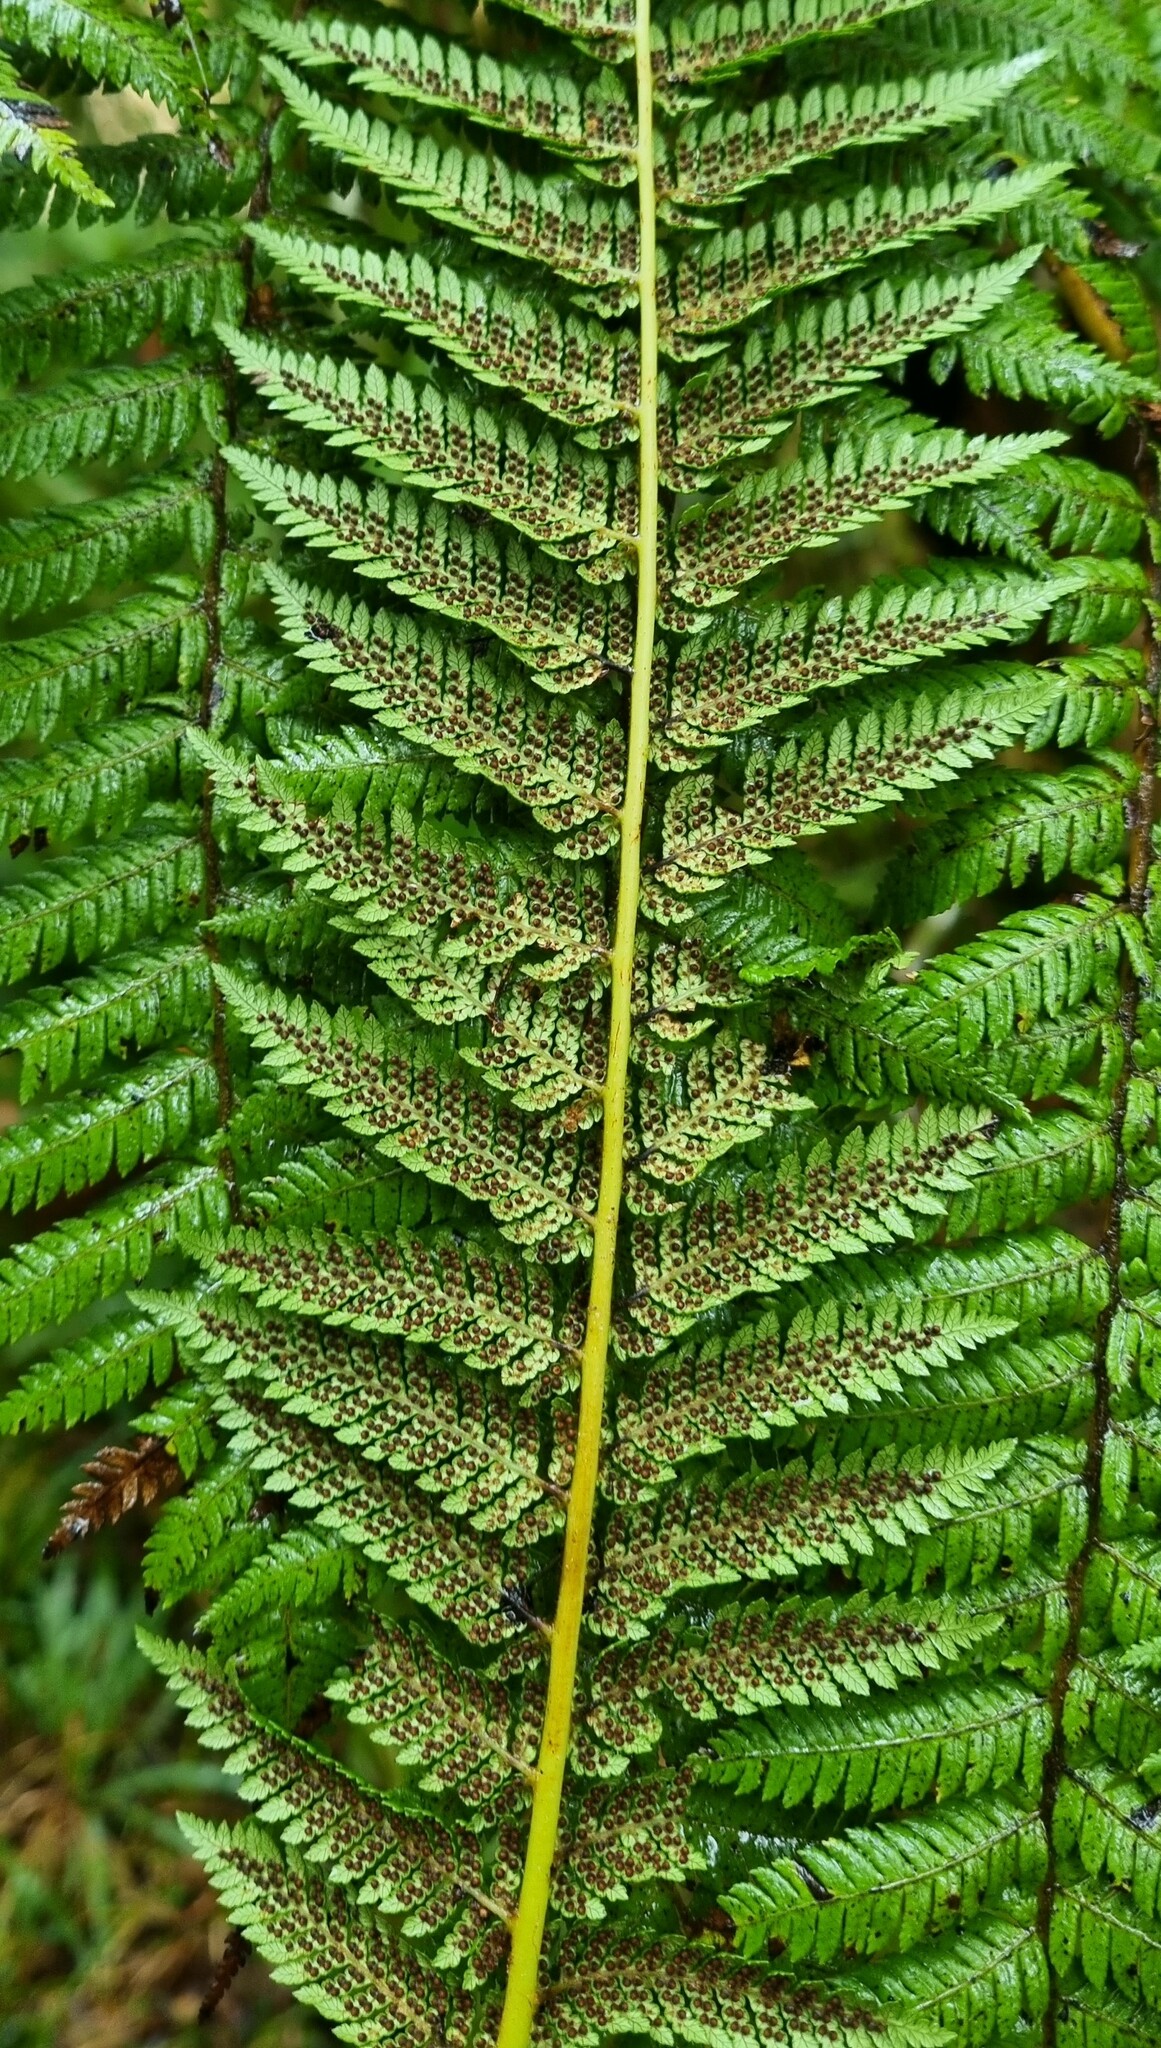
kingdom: Plantae
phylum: Tracheophyta
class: Polypodiopsida
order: Cyatheales
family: Cyatheaceae
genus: Alsophila
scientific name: Alsophila smithii
